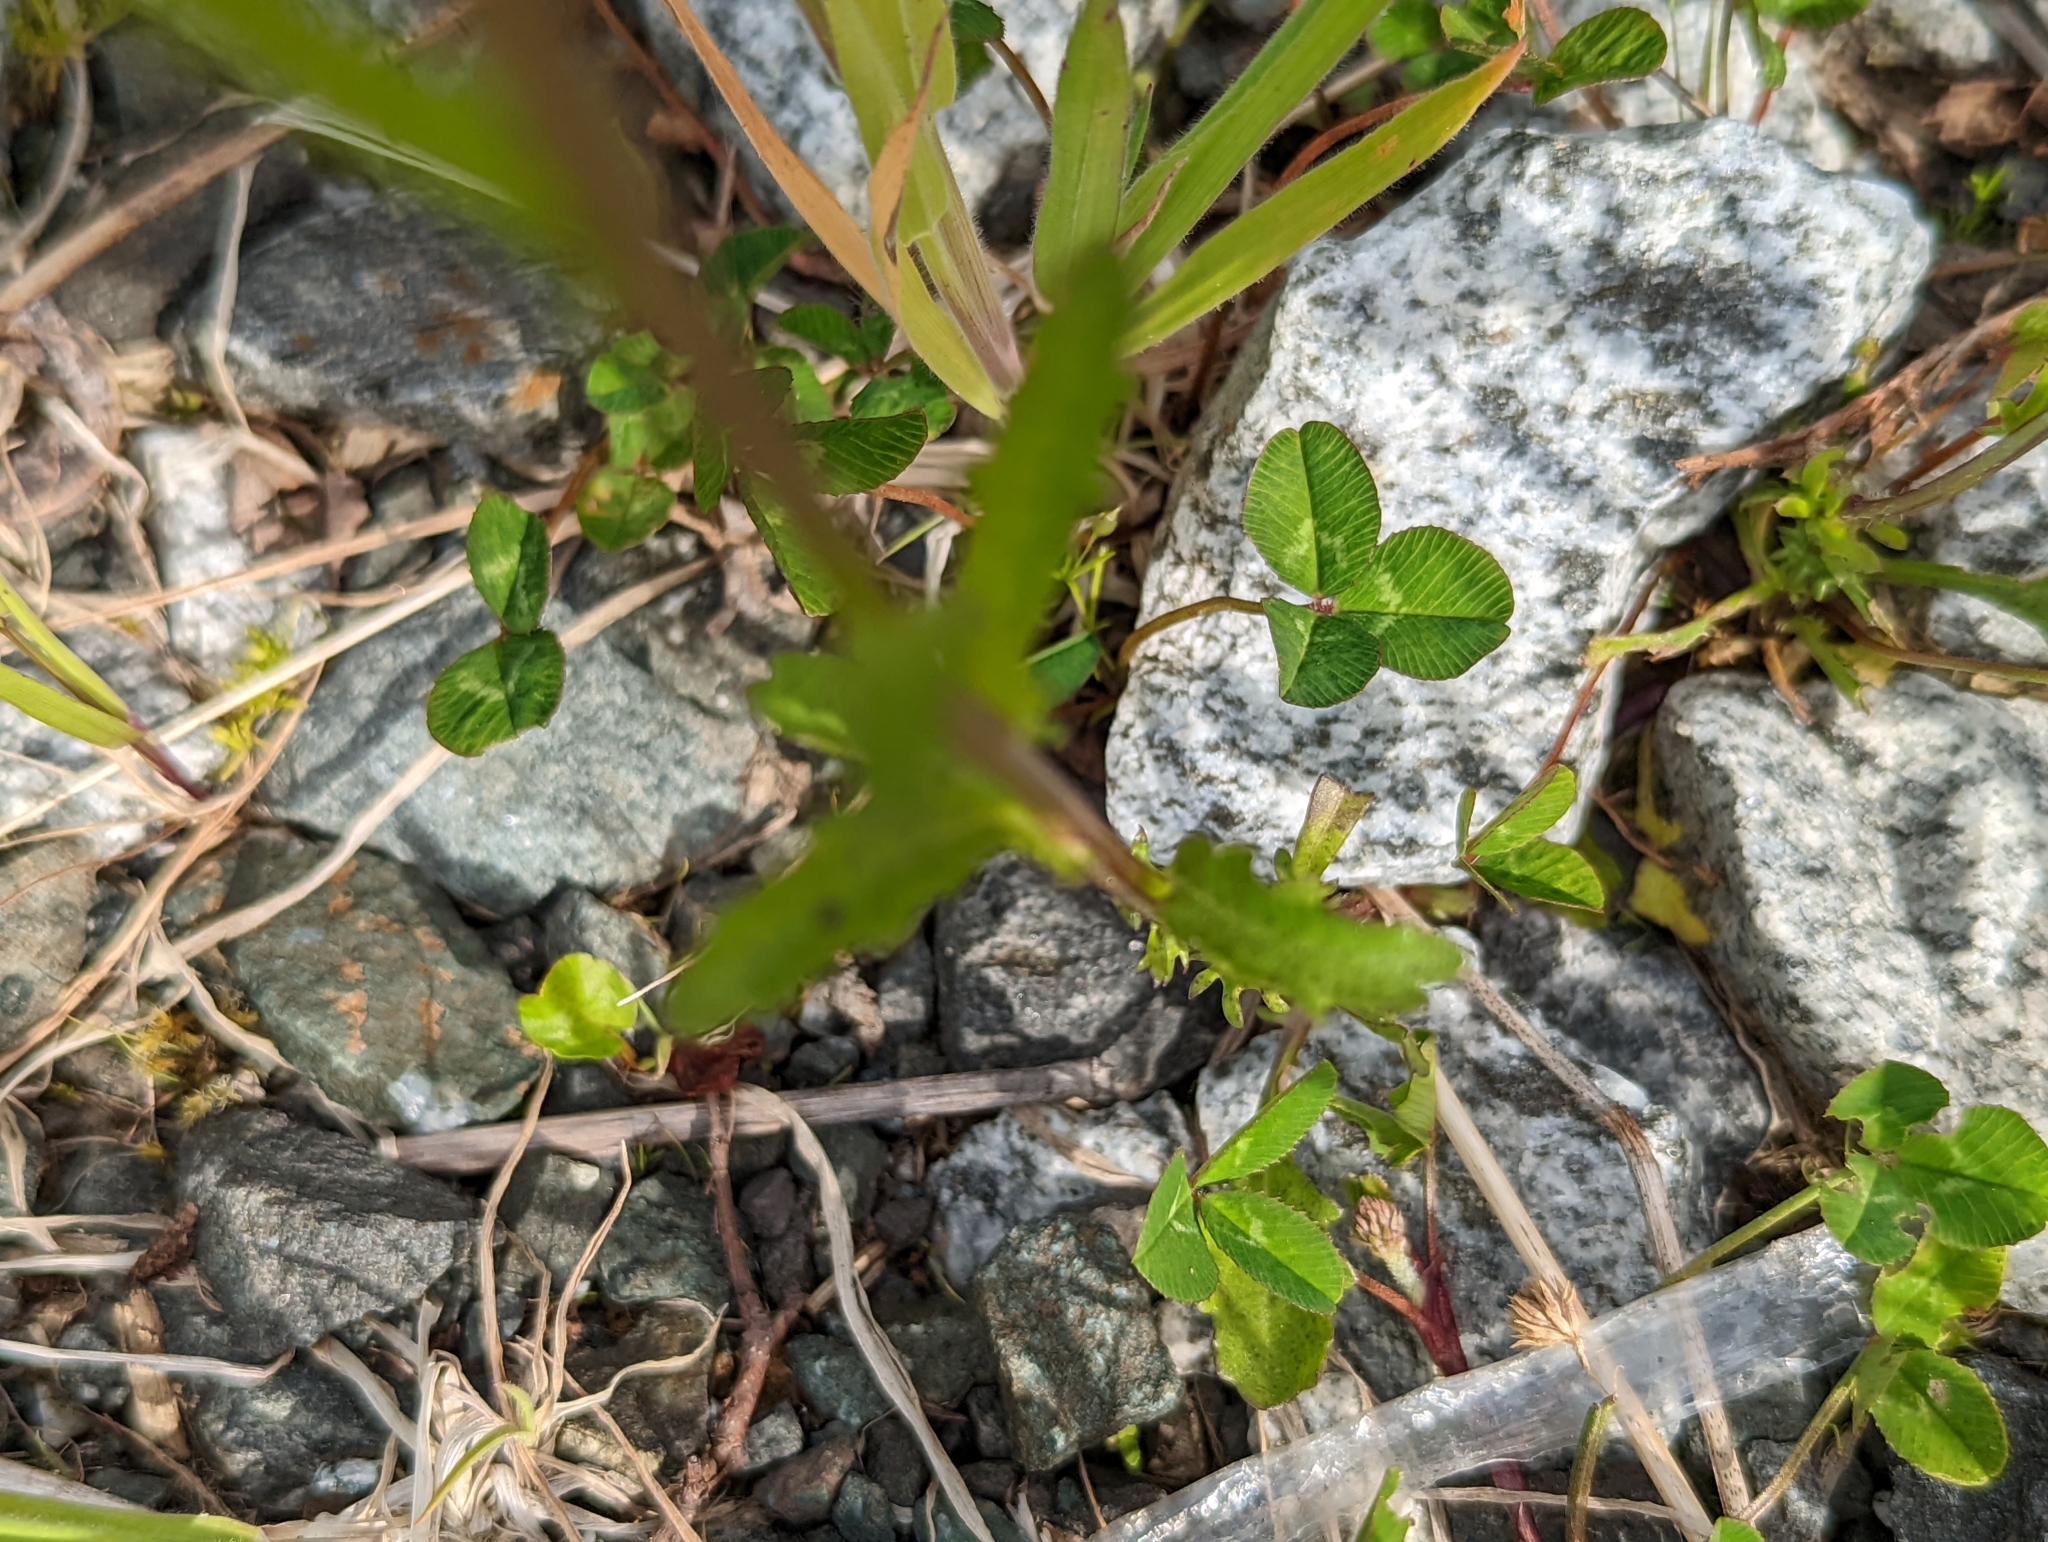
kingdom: Plantae
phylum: Tracheophyta
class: Magnoliopsida
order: Asterales
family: Asteraceae
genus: Leucanthemum
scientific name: Leucanthemum vulgare
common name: Oxeye daisy
